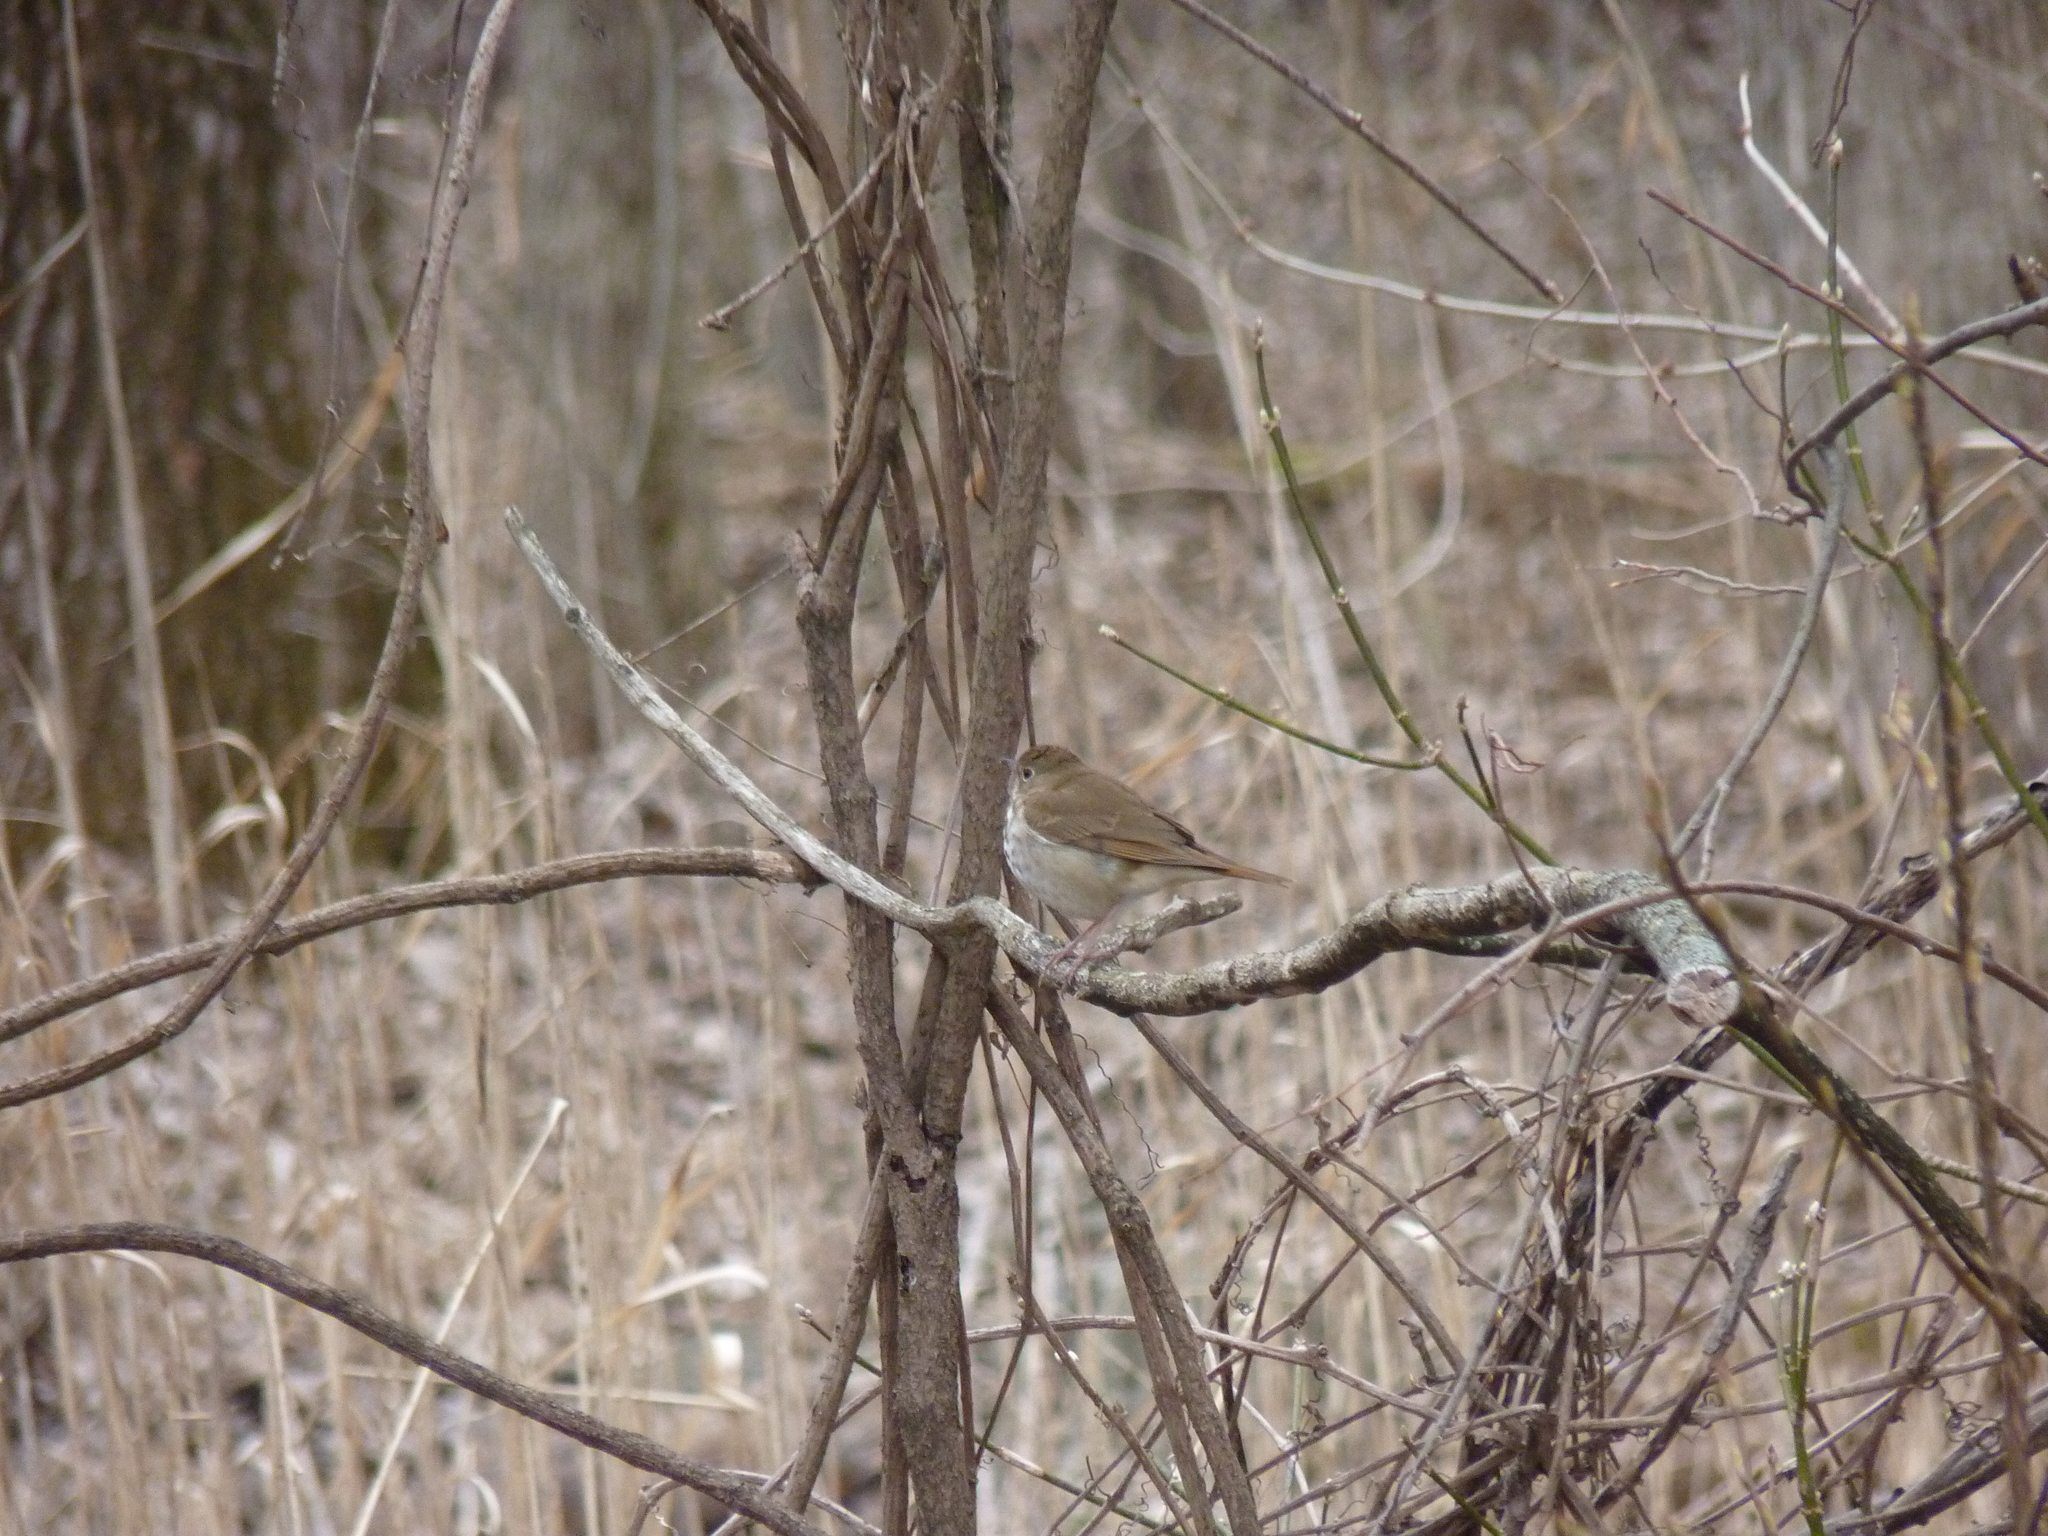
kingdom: Animalia
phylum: Chordata
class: Aves
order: Passeriformes
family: Turdidae
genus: Catharus
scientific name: Catharus guttatus
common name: Hermit thrush
